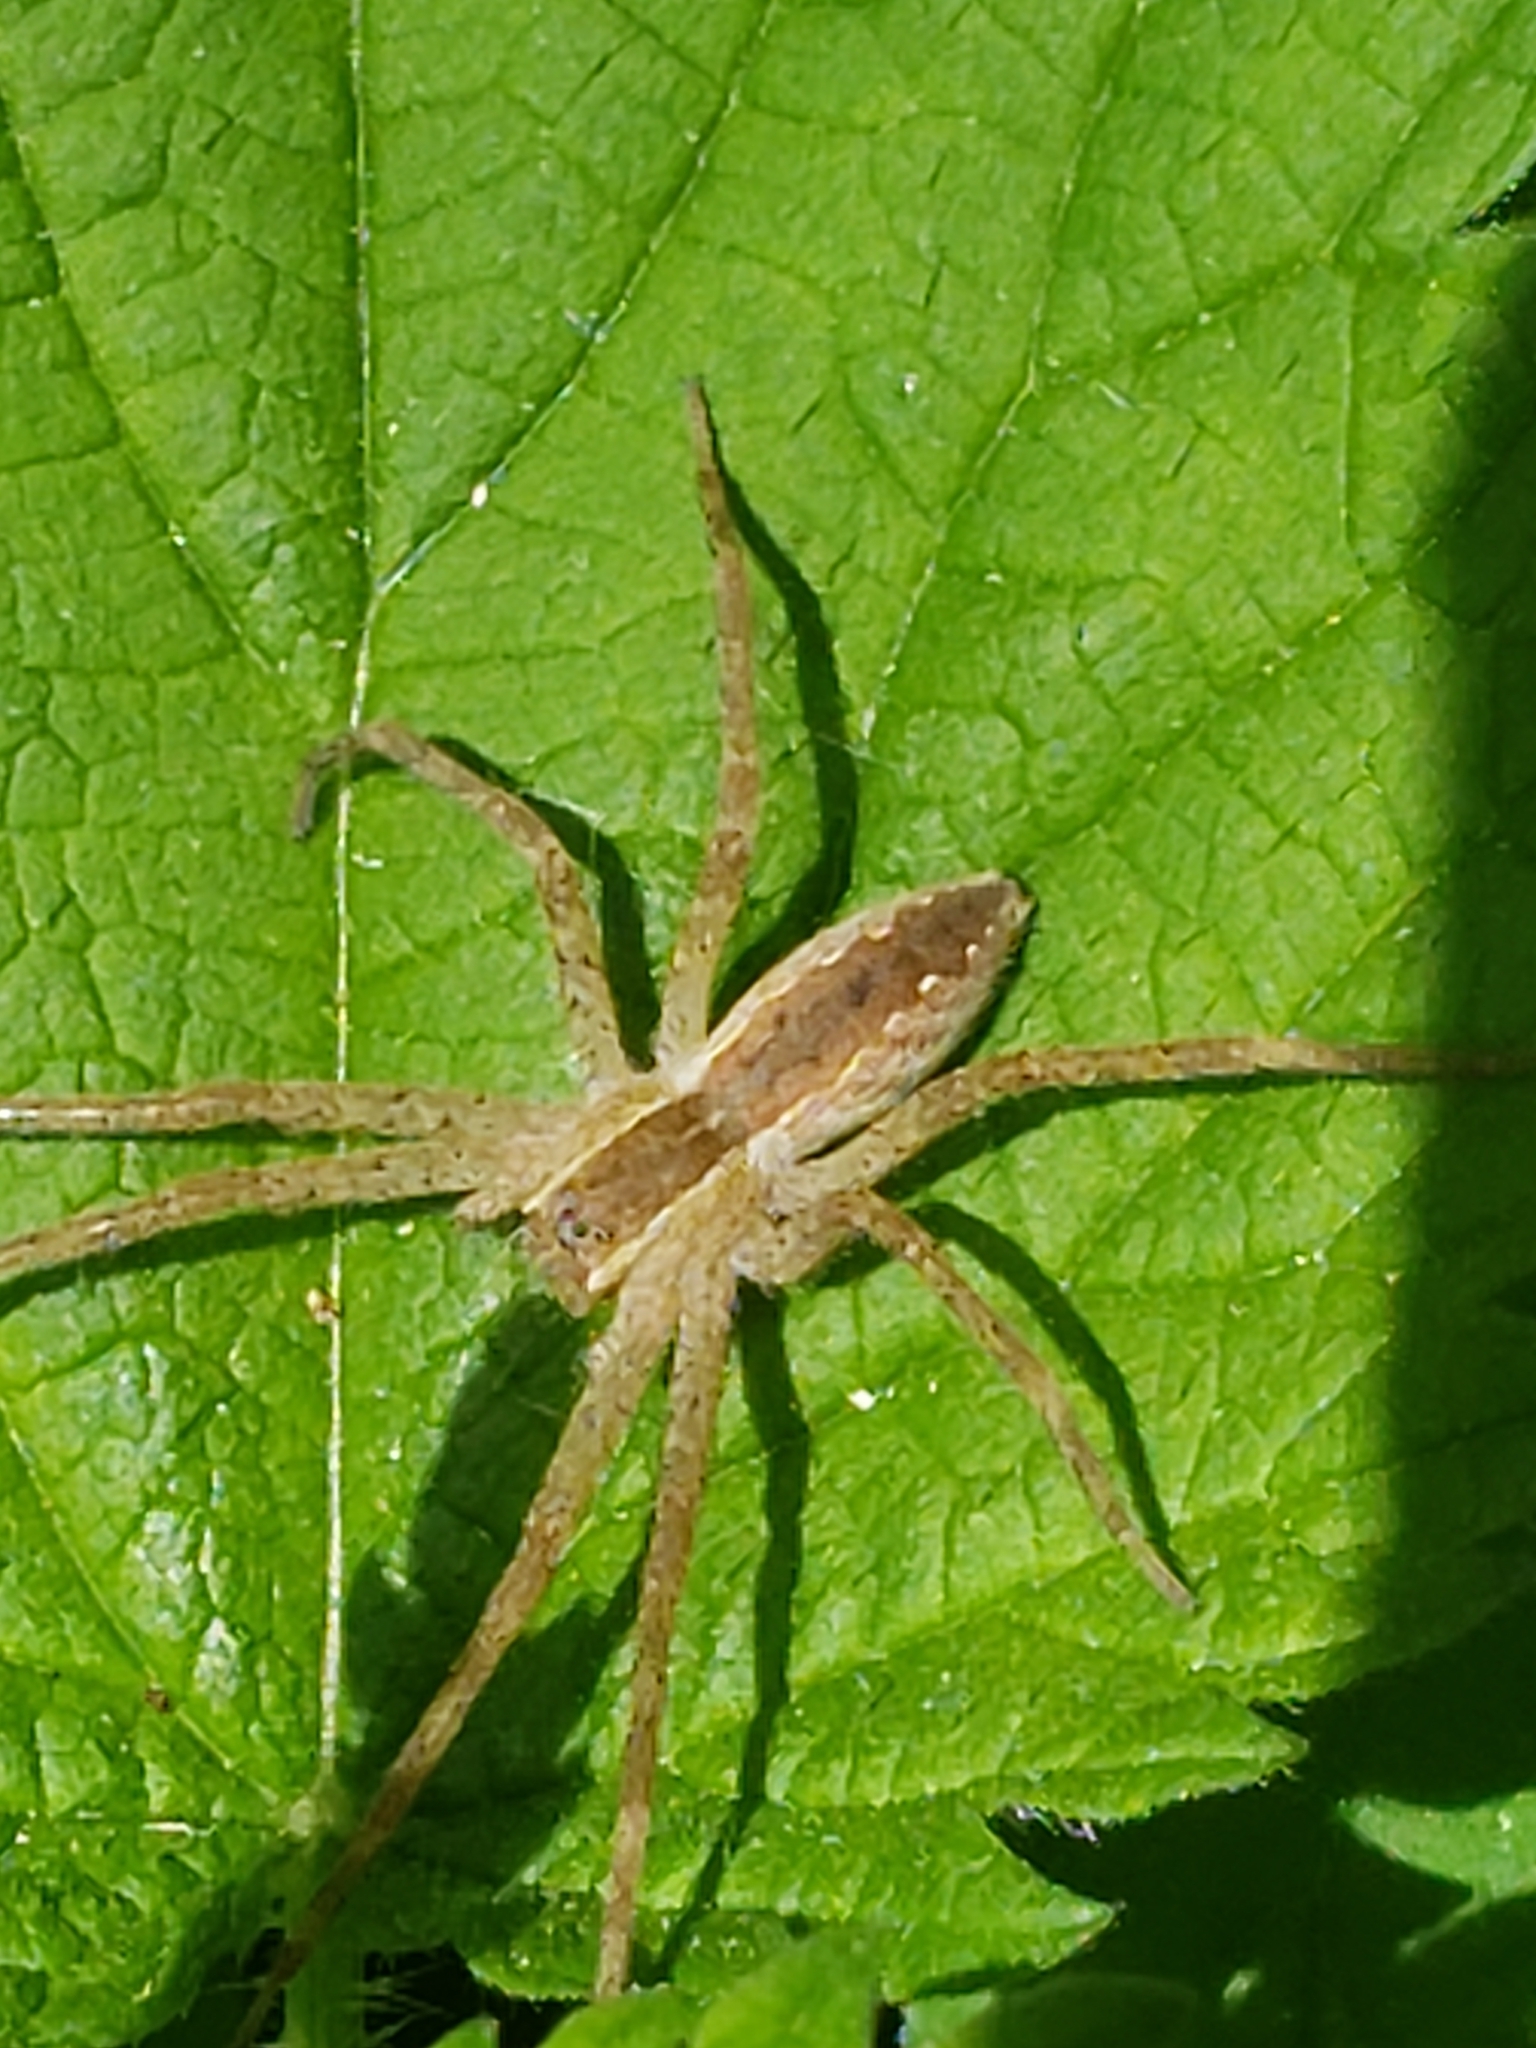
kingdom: Animalia
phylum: Arthropoda
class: Arachnida
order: Araneae
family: Pisauridae
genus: Pisaurina
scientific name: Pisaurina mira
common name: American nursery web spider
